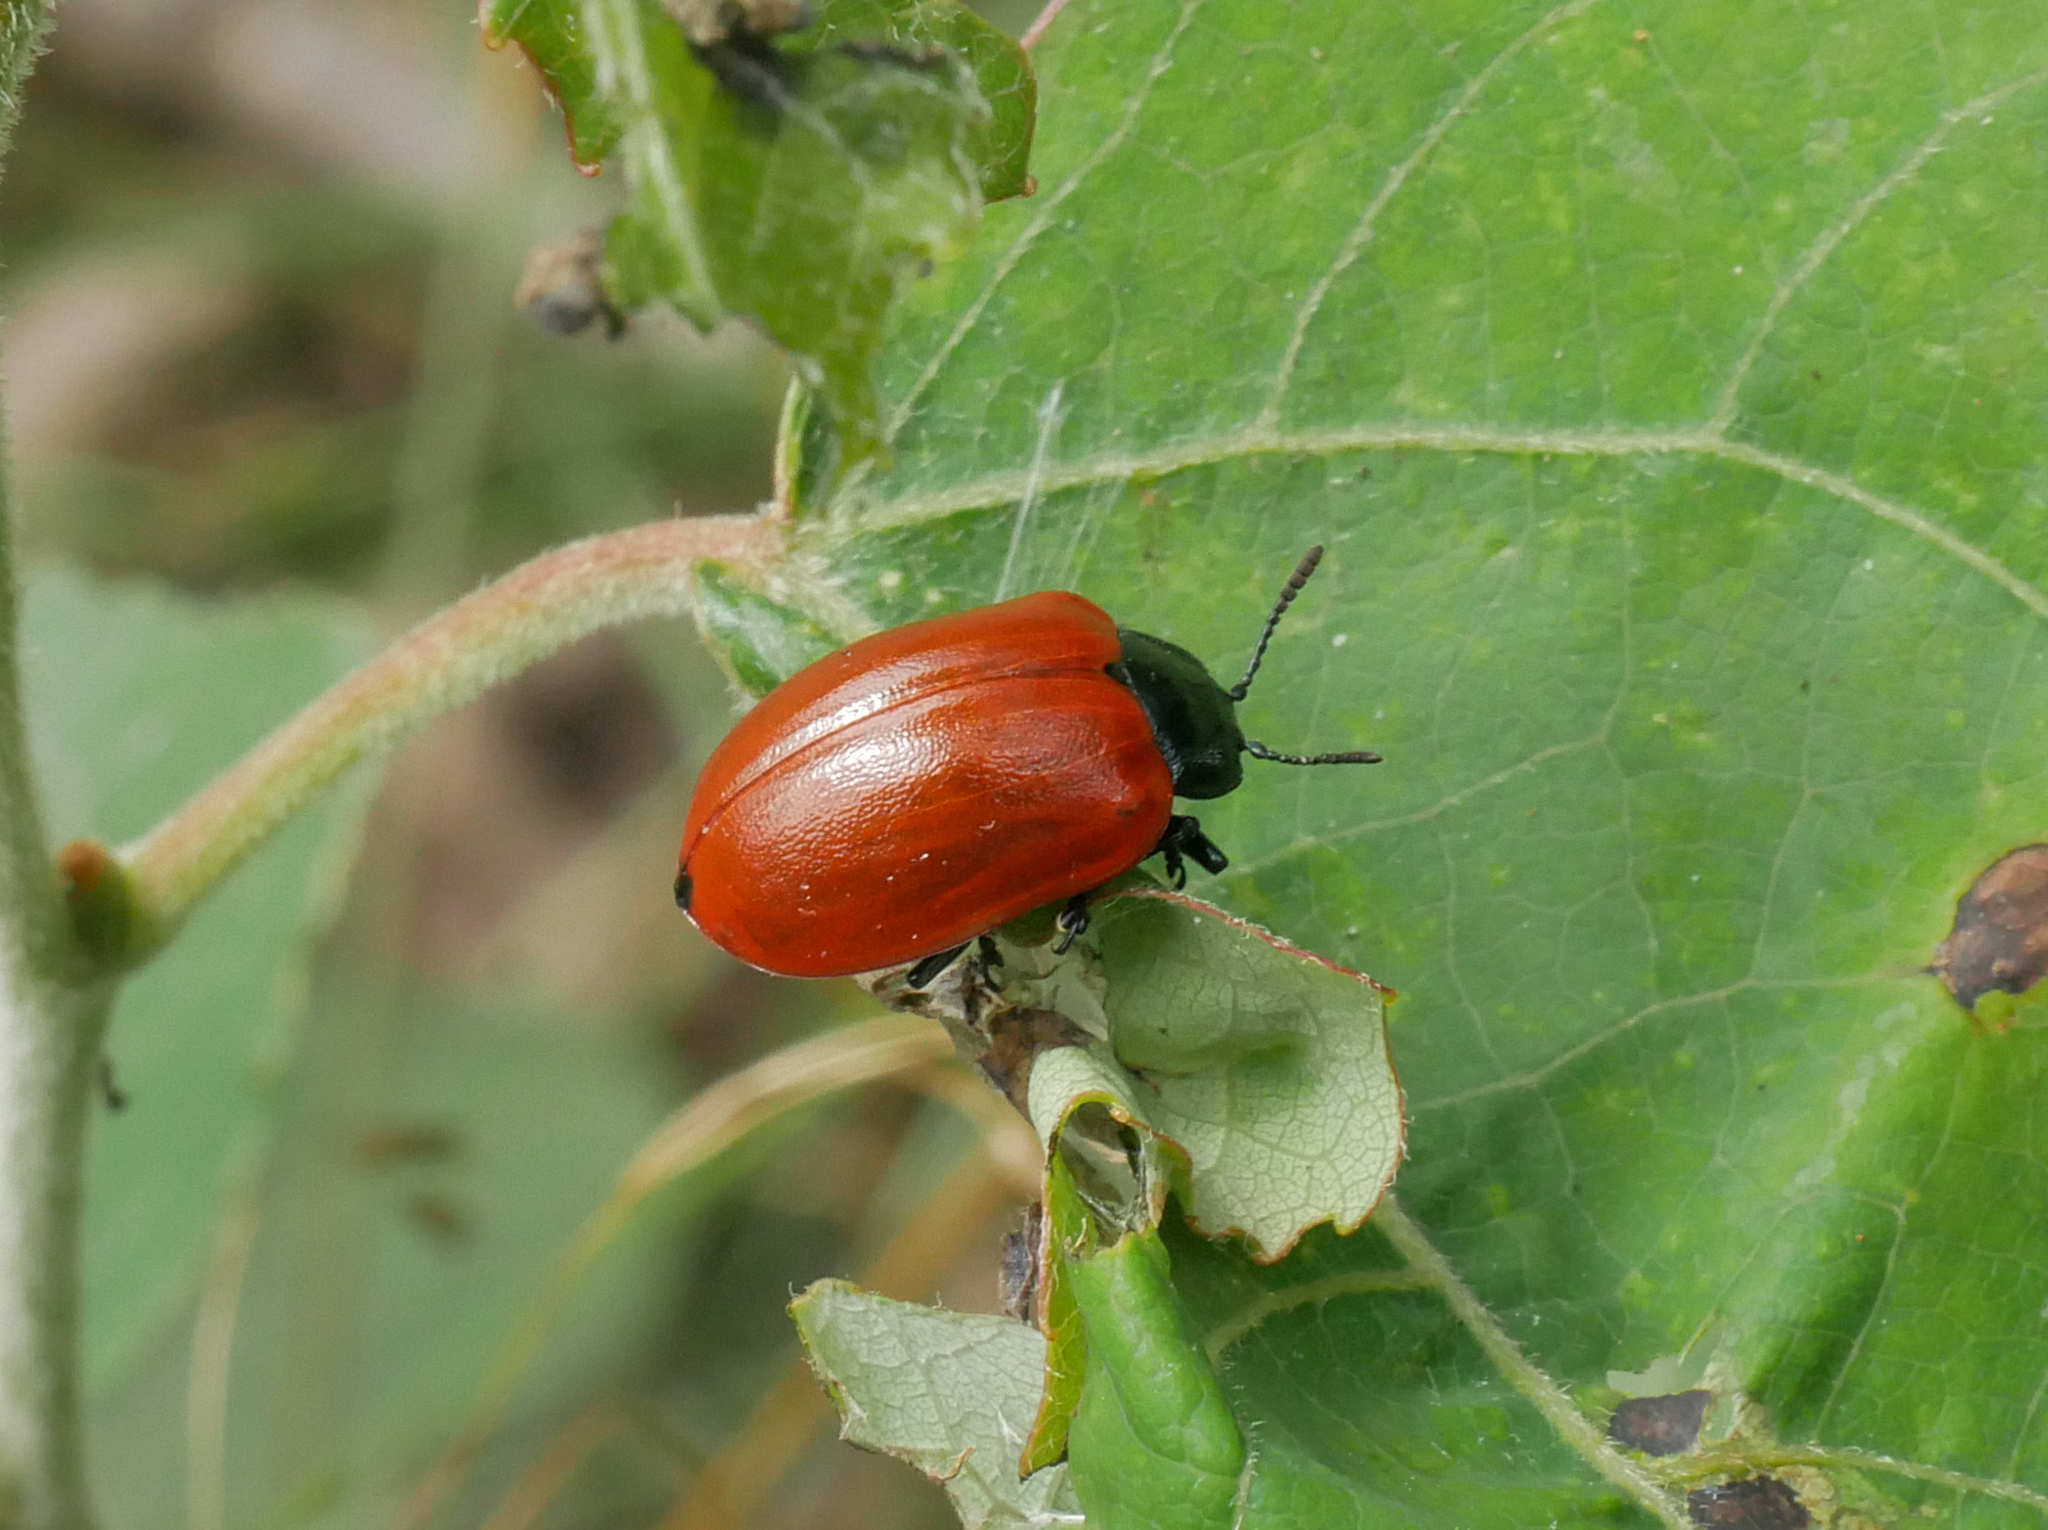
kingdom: Animalia
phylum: Arthropoda
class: Insecta
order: Coleoptera
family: Chrysomelidae
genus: Chrysomela
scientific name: Chrysomela populi
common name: Red poplar leaf beetle
